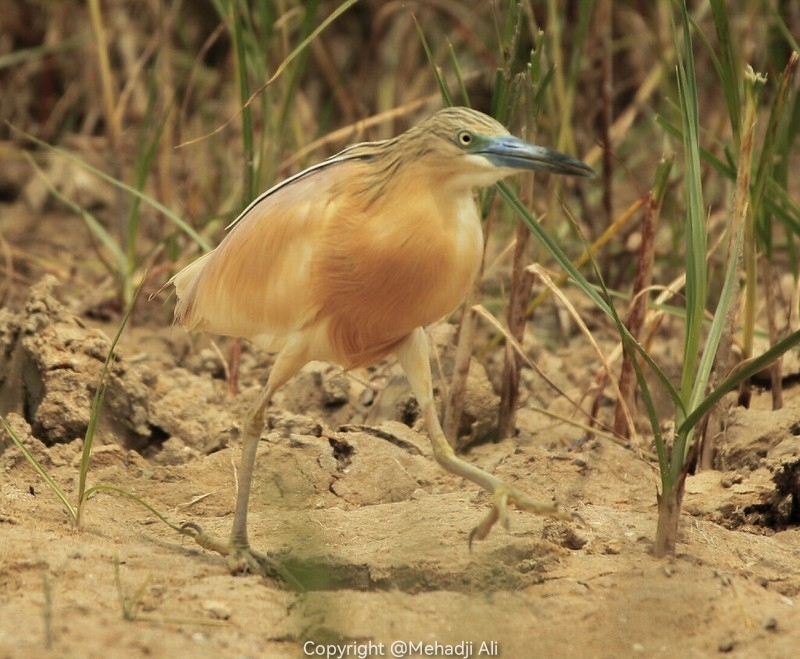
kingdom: Animalia
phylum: Chordata
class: Aves
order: Pelecaniformes
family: Ardeidae
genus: Ardeola
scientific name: Ardeola ralloides
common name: Squacco heron
